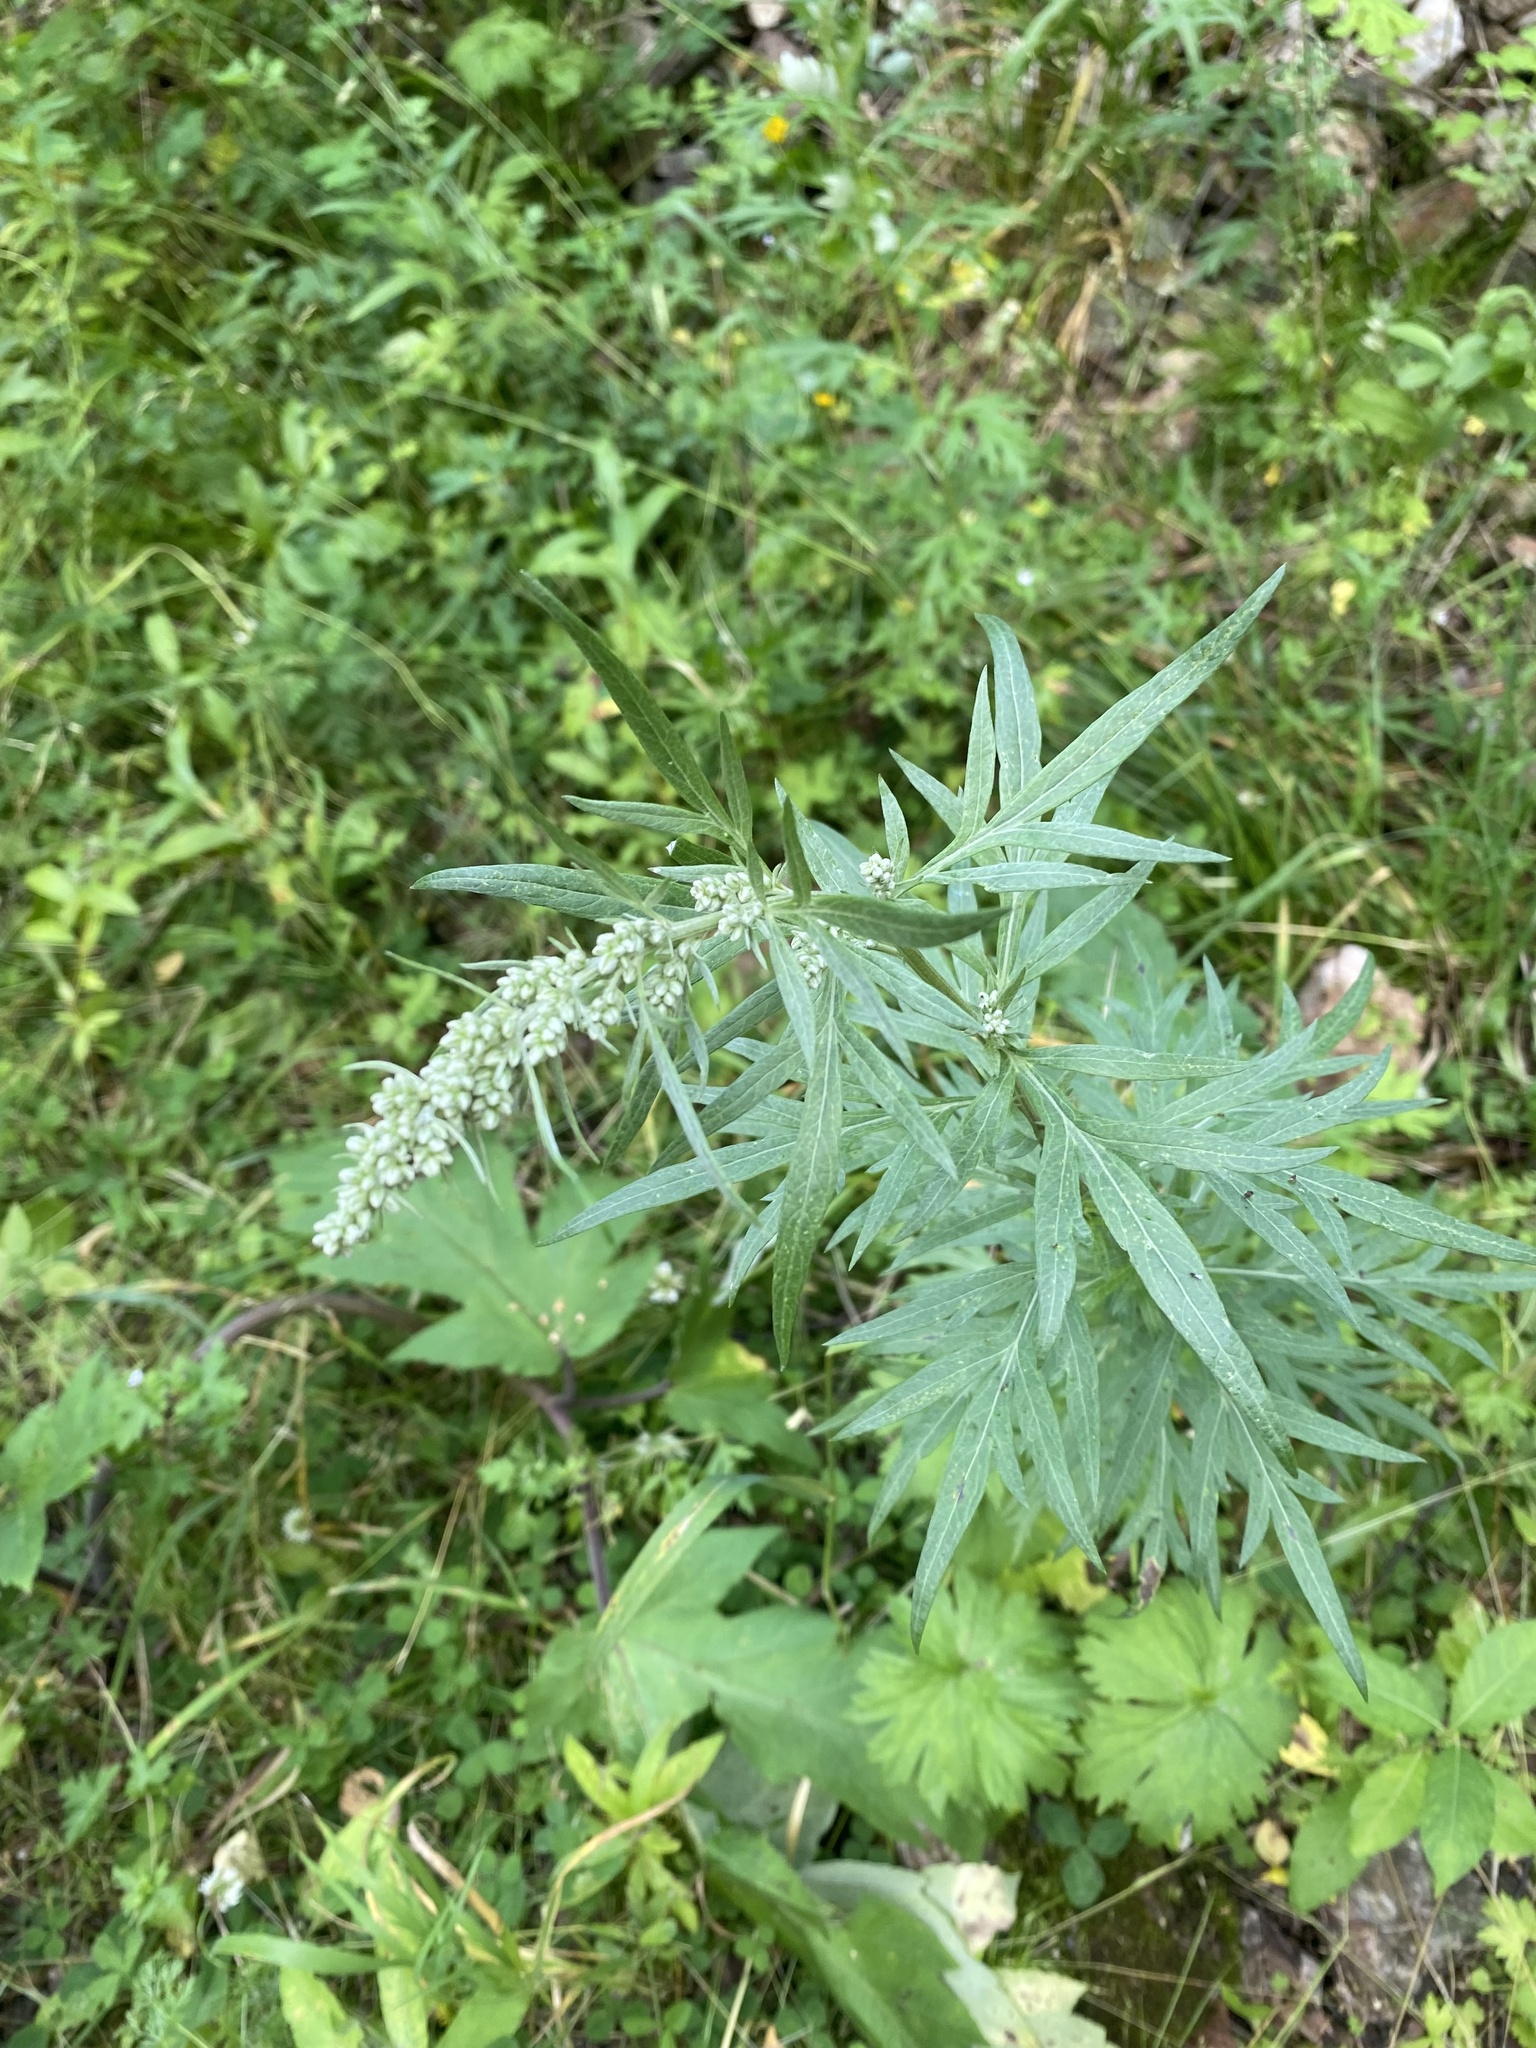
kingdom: Plantae
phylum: Tracheophyta
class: Magnoliopsida
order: Asterales
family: Asteraceae
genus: Artemisia
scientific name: Artemisia vulgaris
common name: Mugwort
